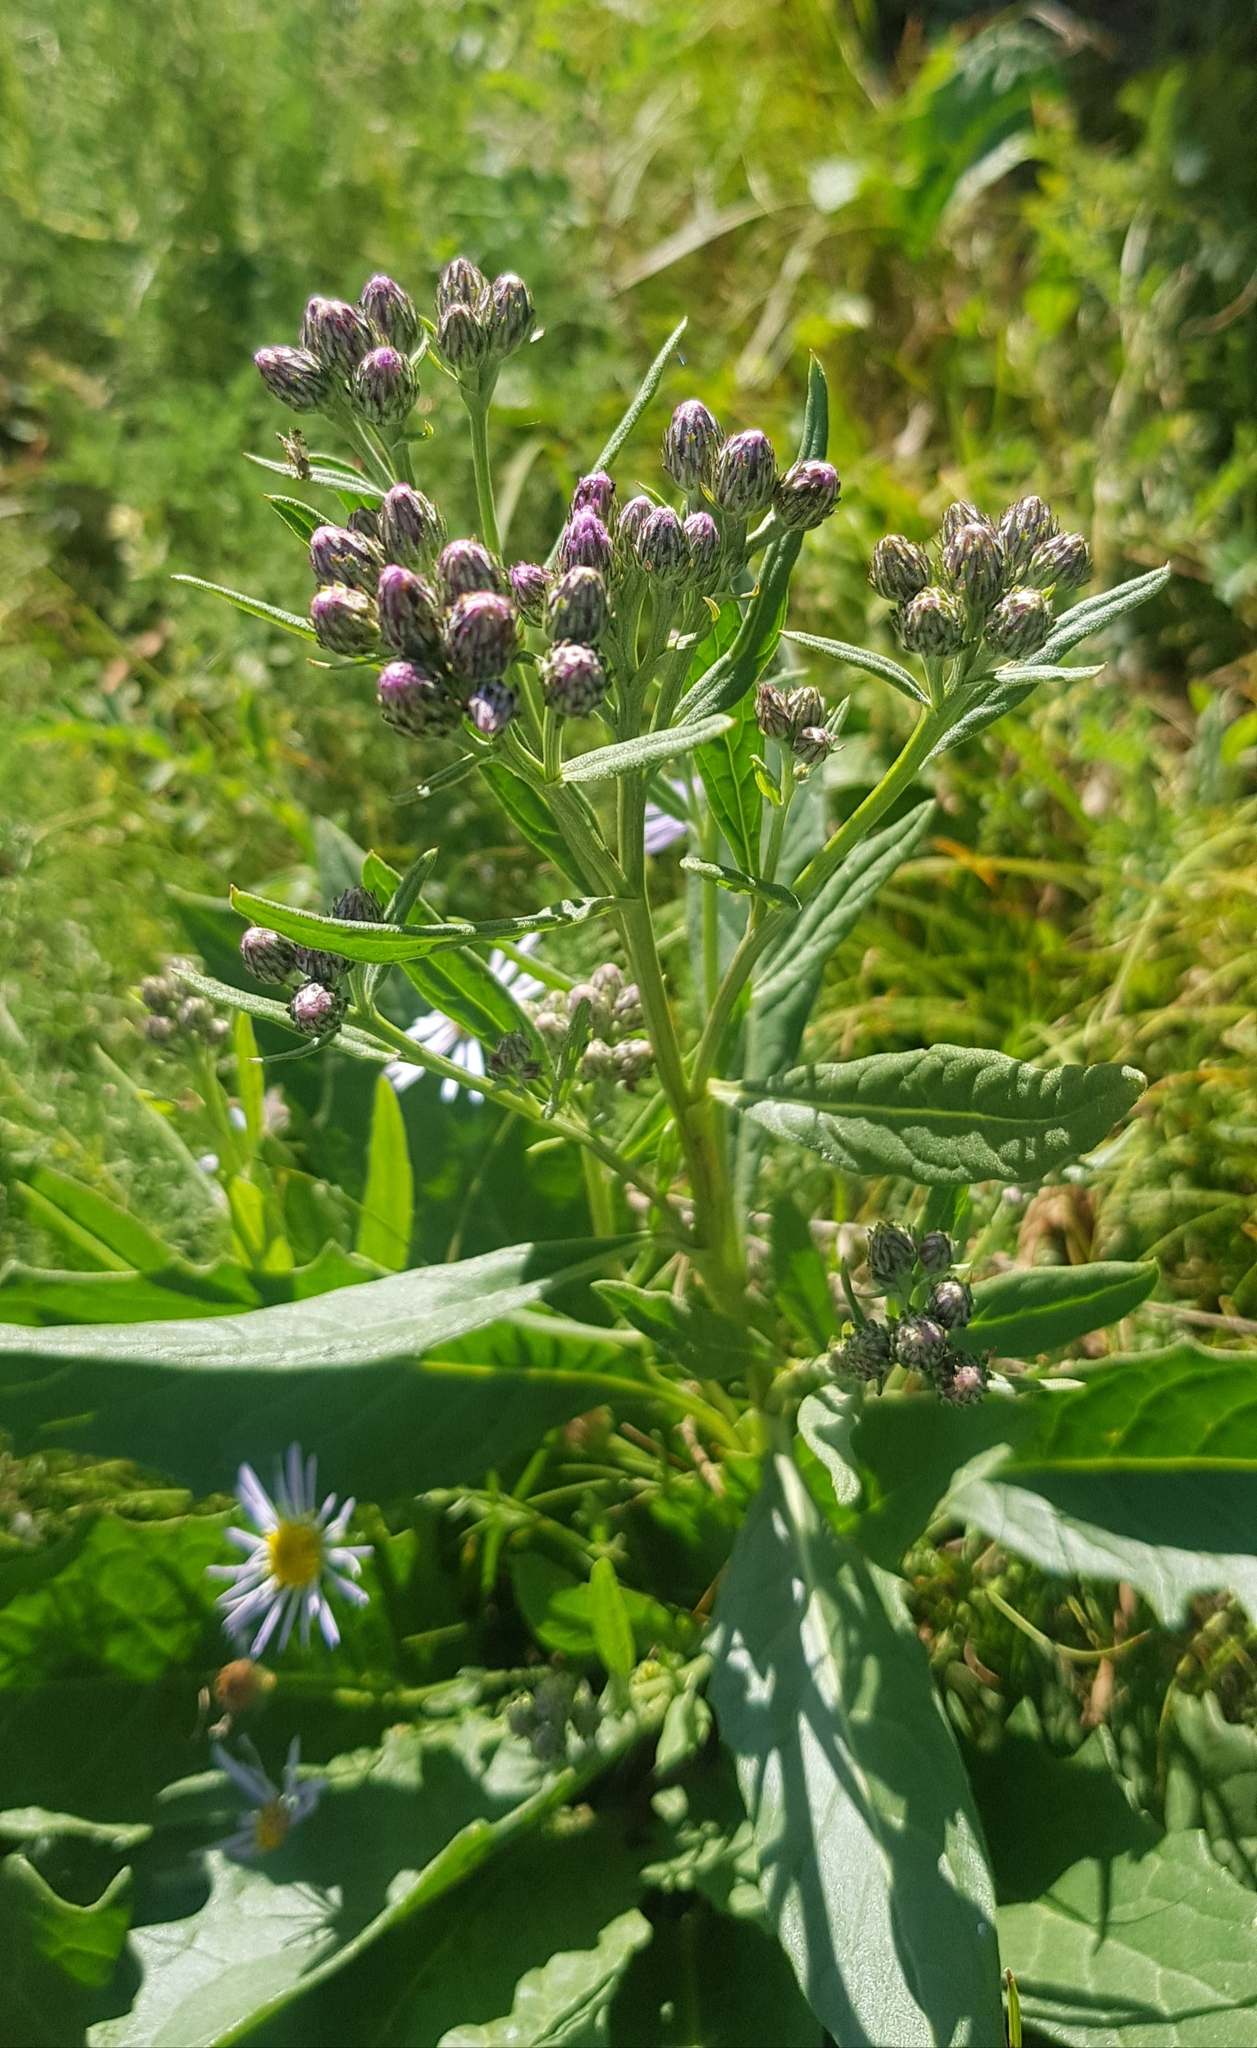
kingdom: Plantae
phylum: Tracheophyta
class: Magnoliopsida
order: Asterales
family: Asteraceae
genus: Saussurea
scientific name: Saussurea amara
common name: Alberta sawwort
